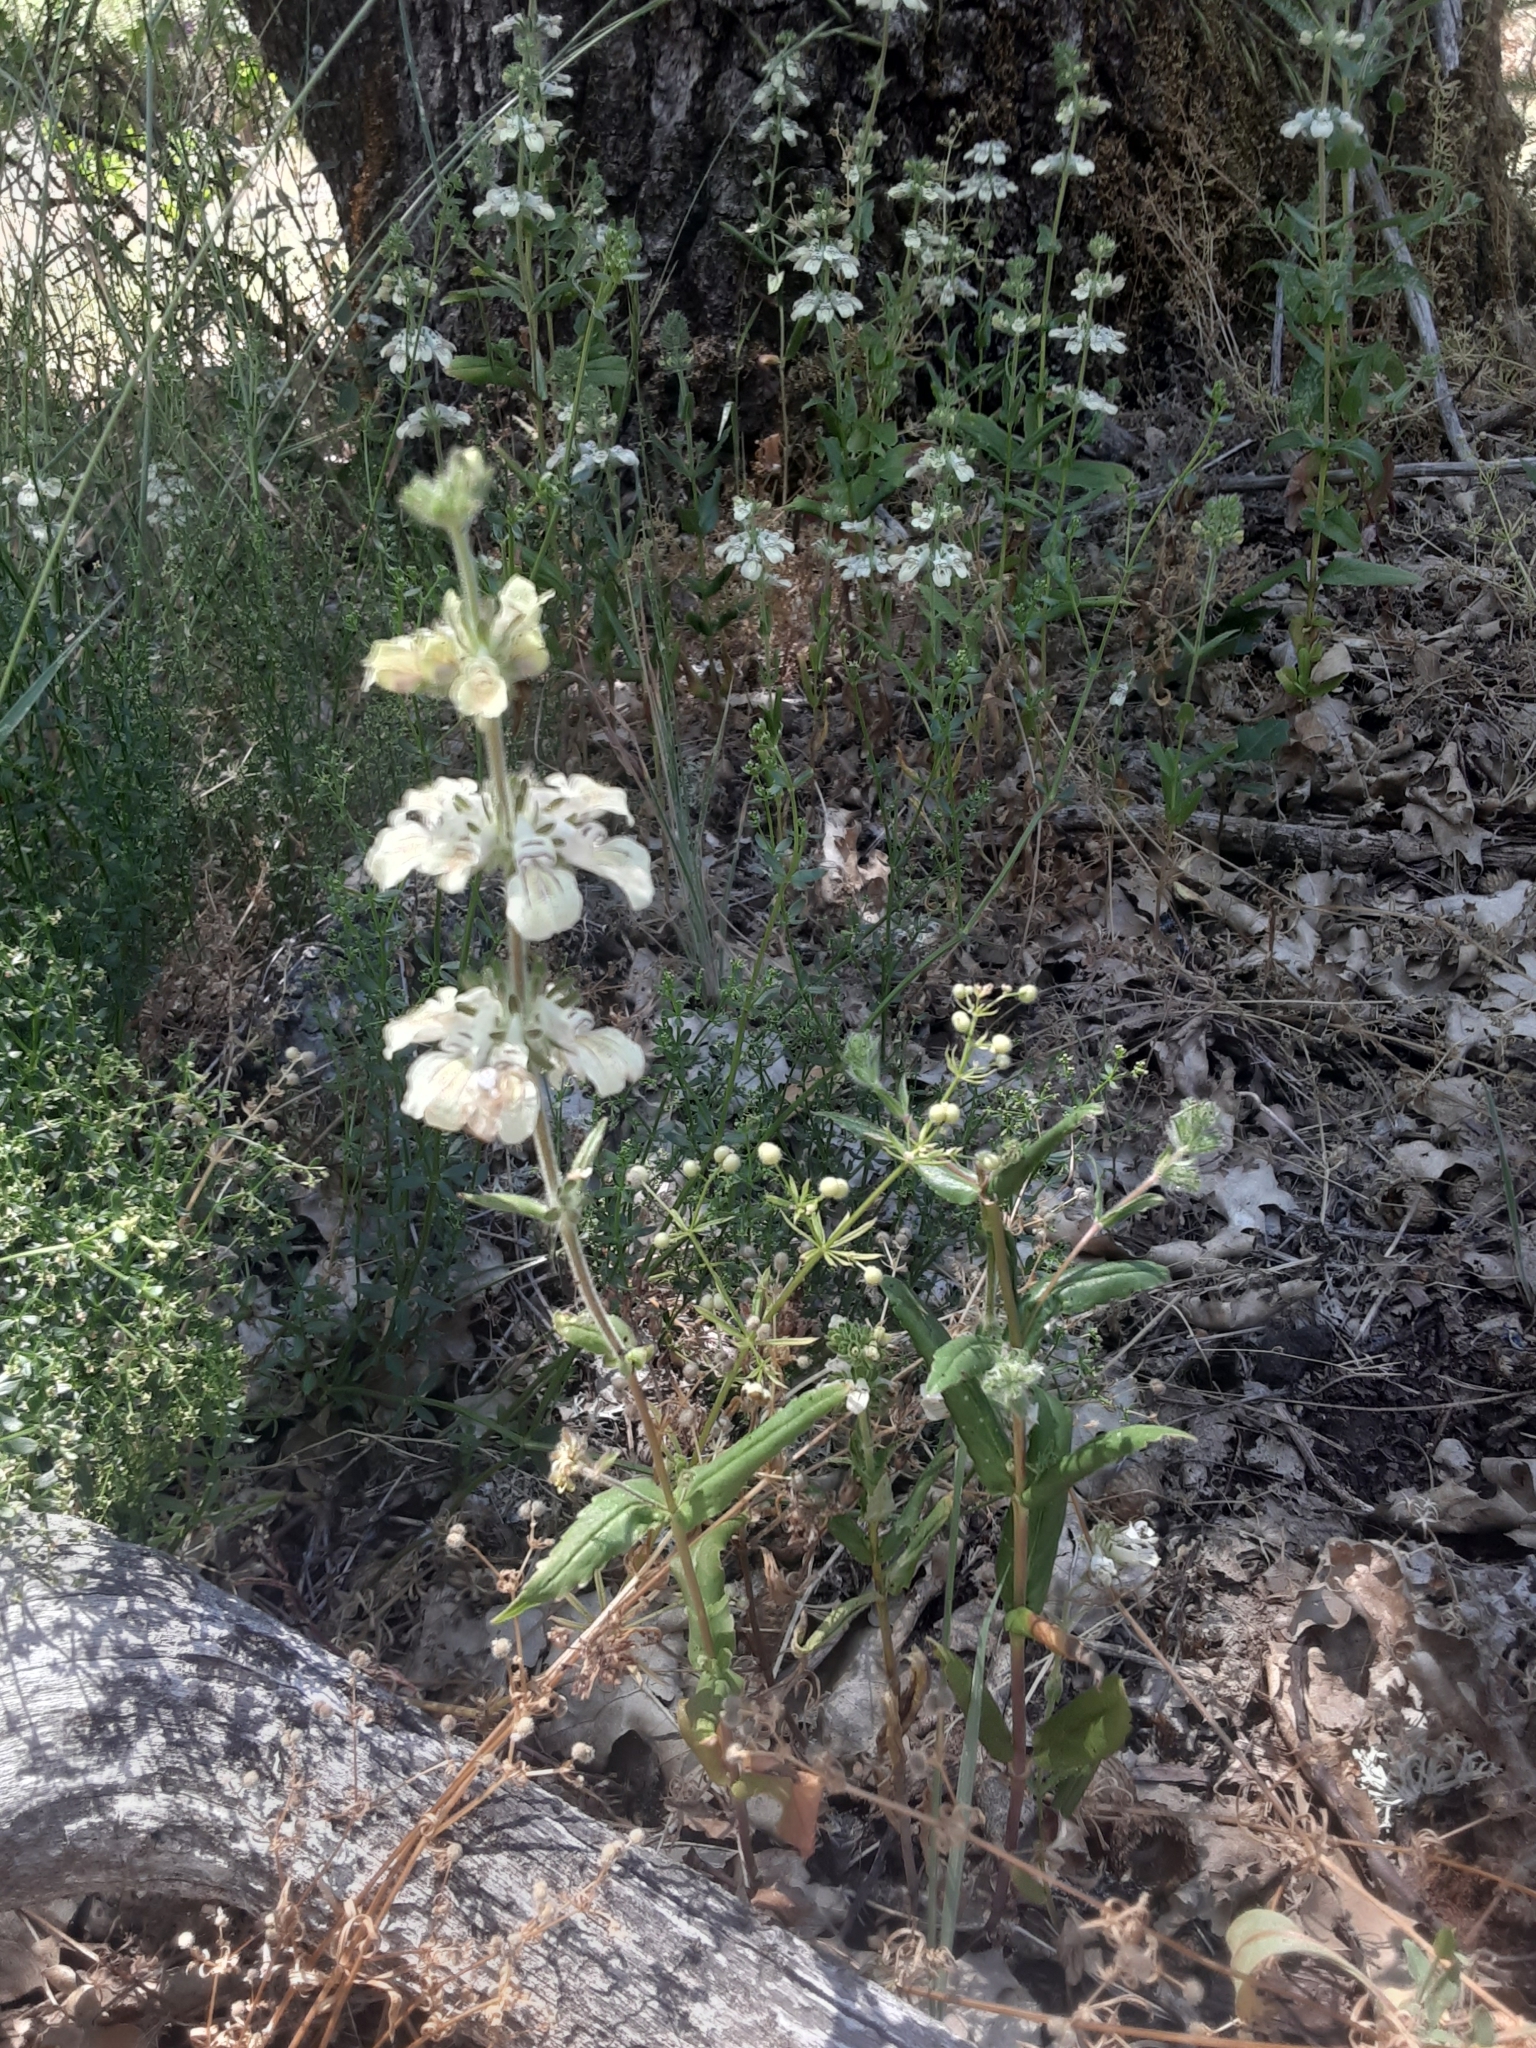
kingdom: Plantae
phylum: Tracheophyta
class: Magnoliopsida
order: Lamiales
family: Plantaginaceae
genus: Collinsia
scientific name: Collinsia tinctoria
